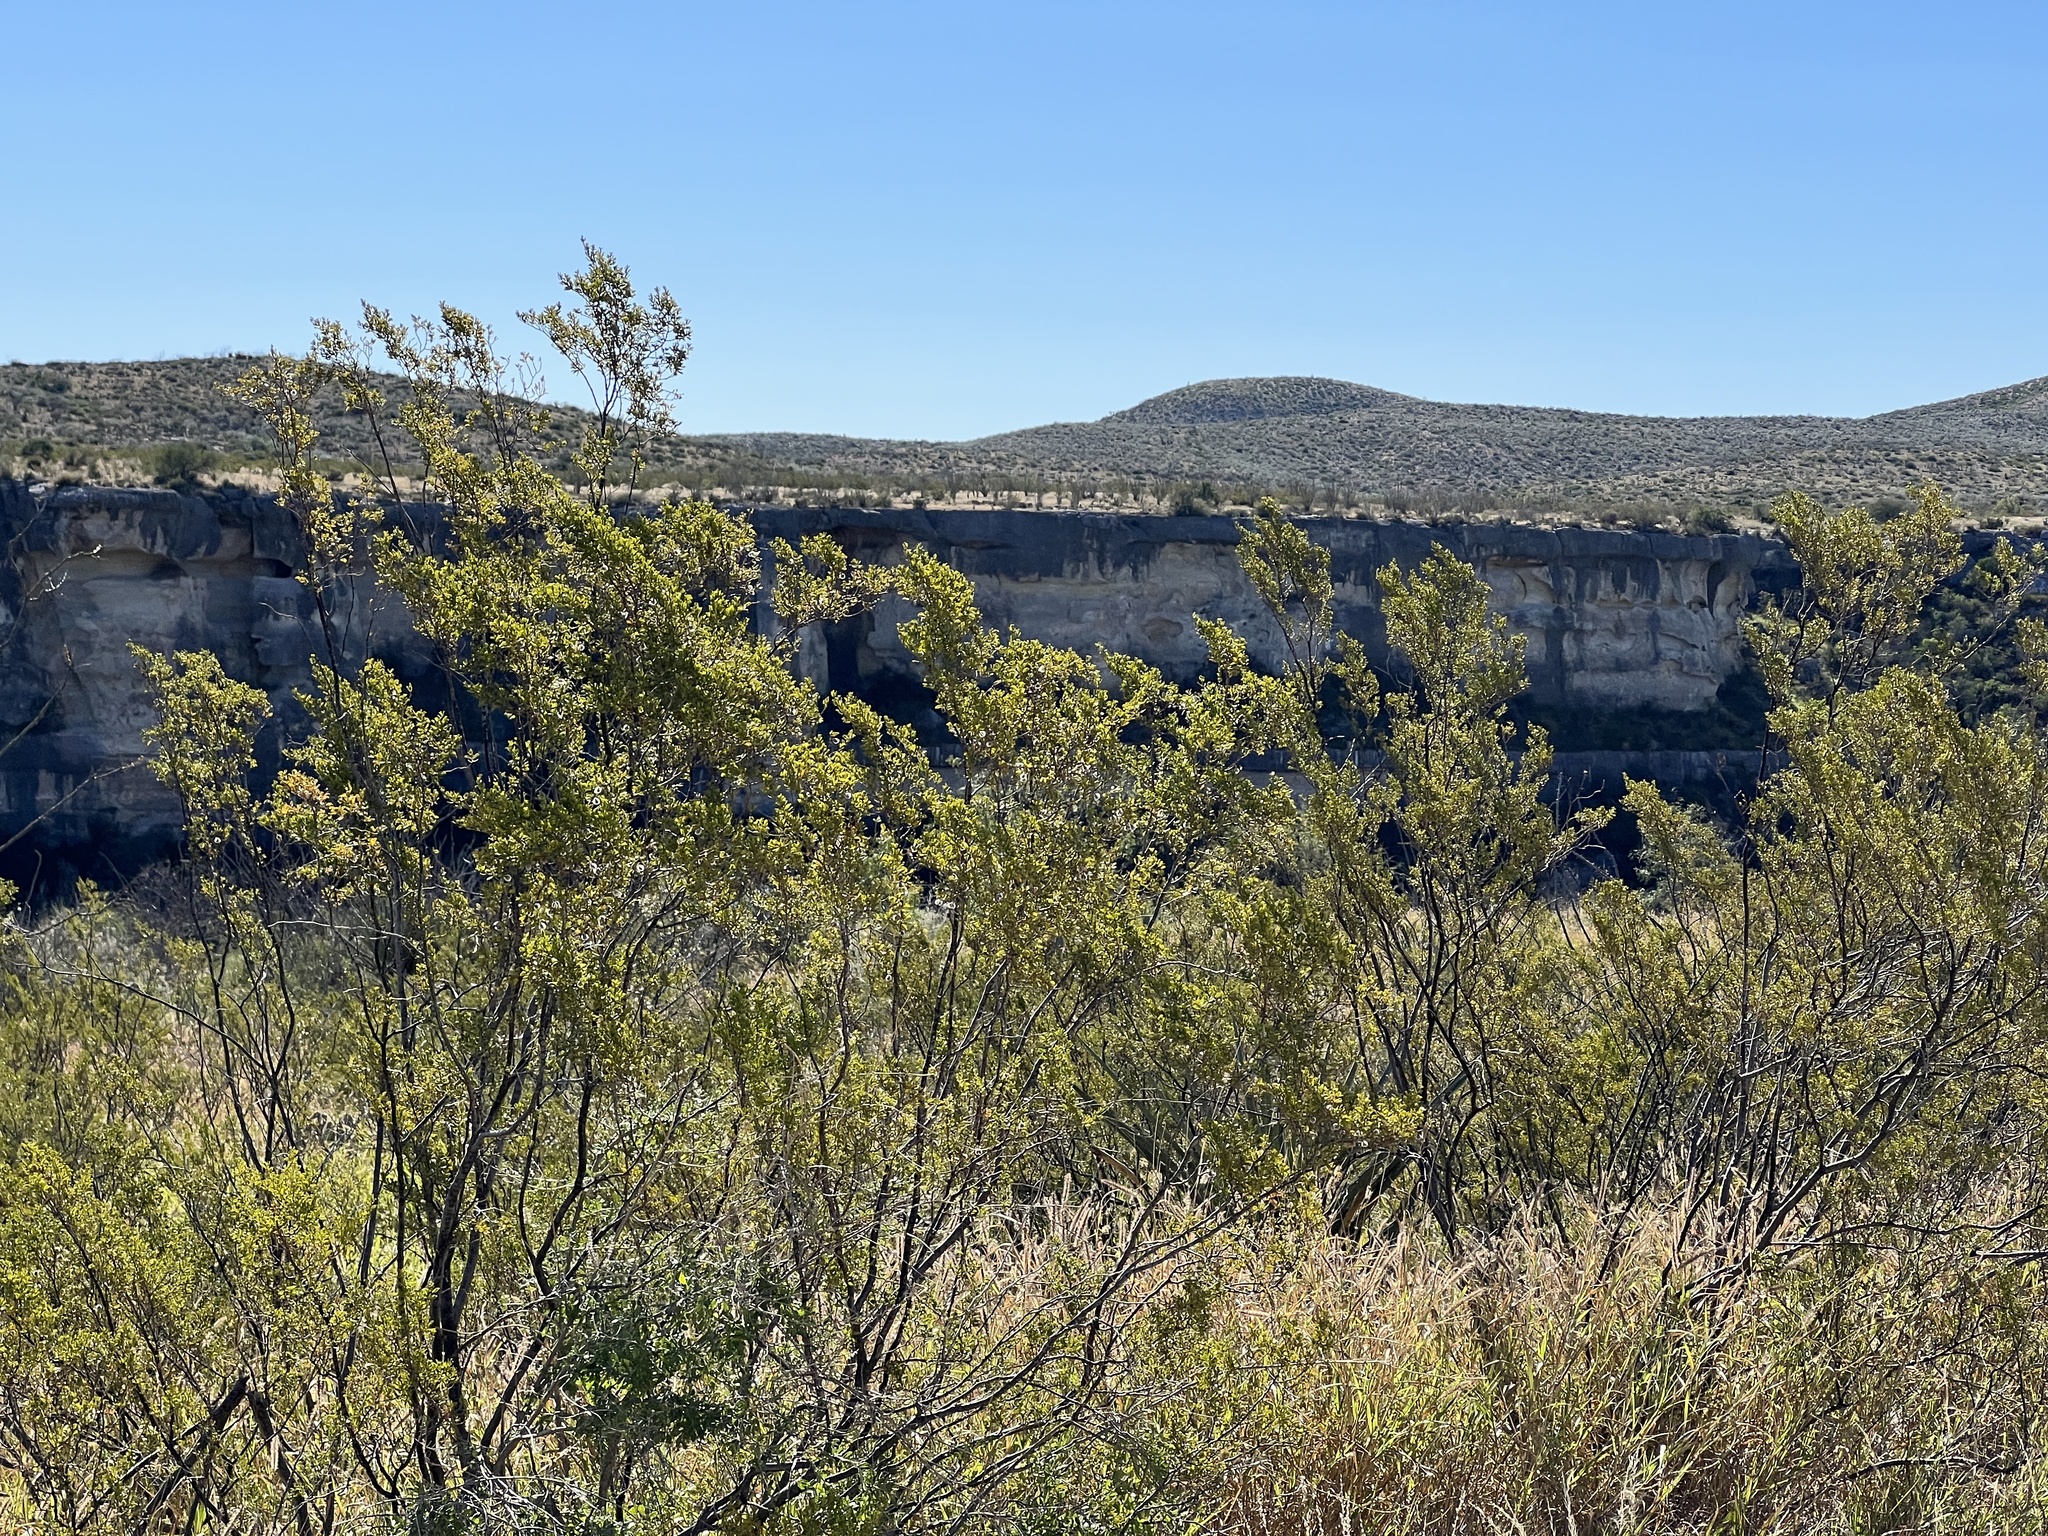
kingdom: Plantae
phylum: Tracheophyta
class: Magnoliopsida
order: Zygophyllales
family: Zygophyllaceae
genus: Larrea
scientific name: Larrea tridentata
